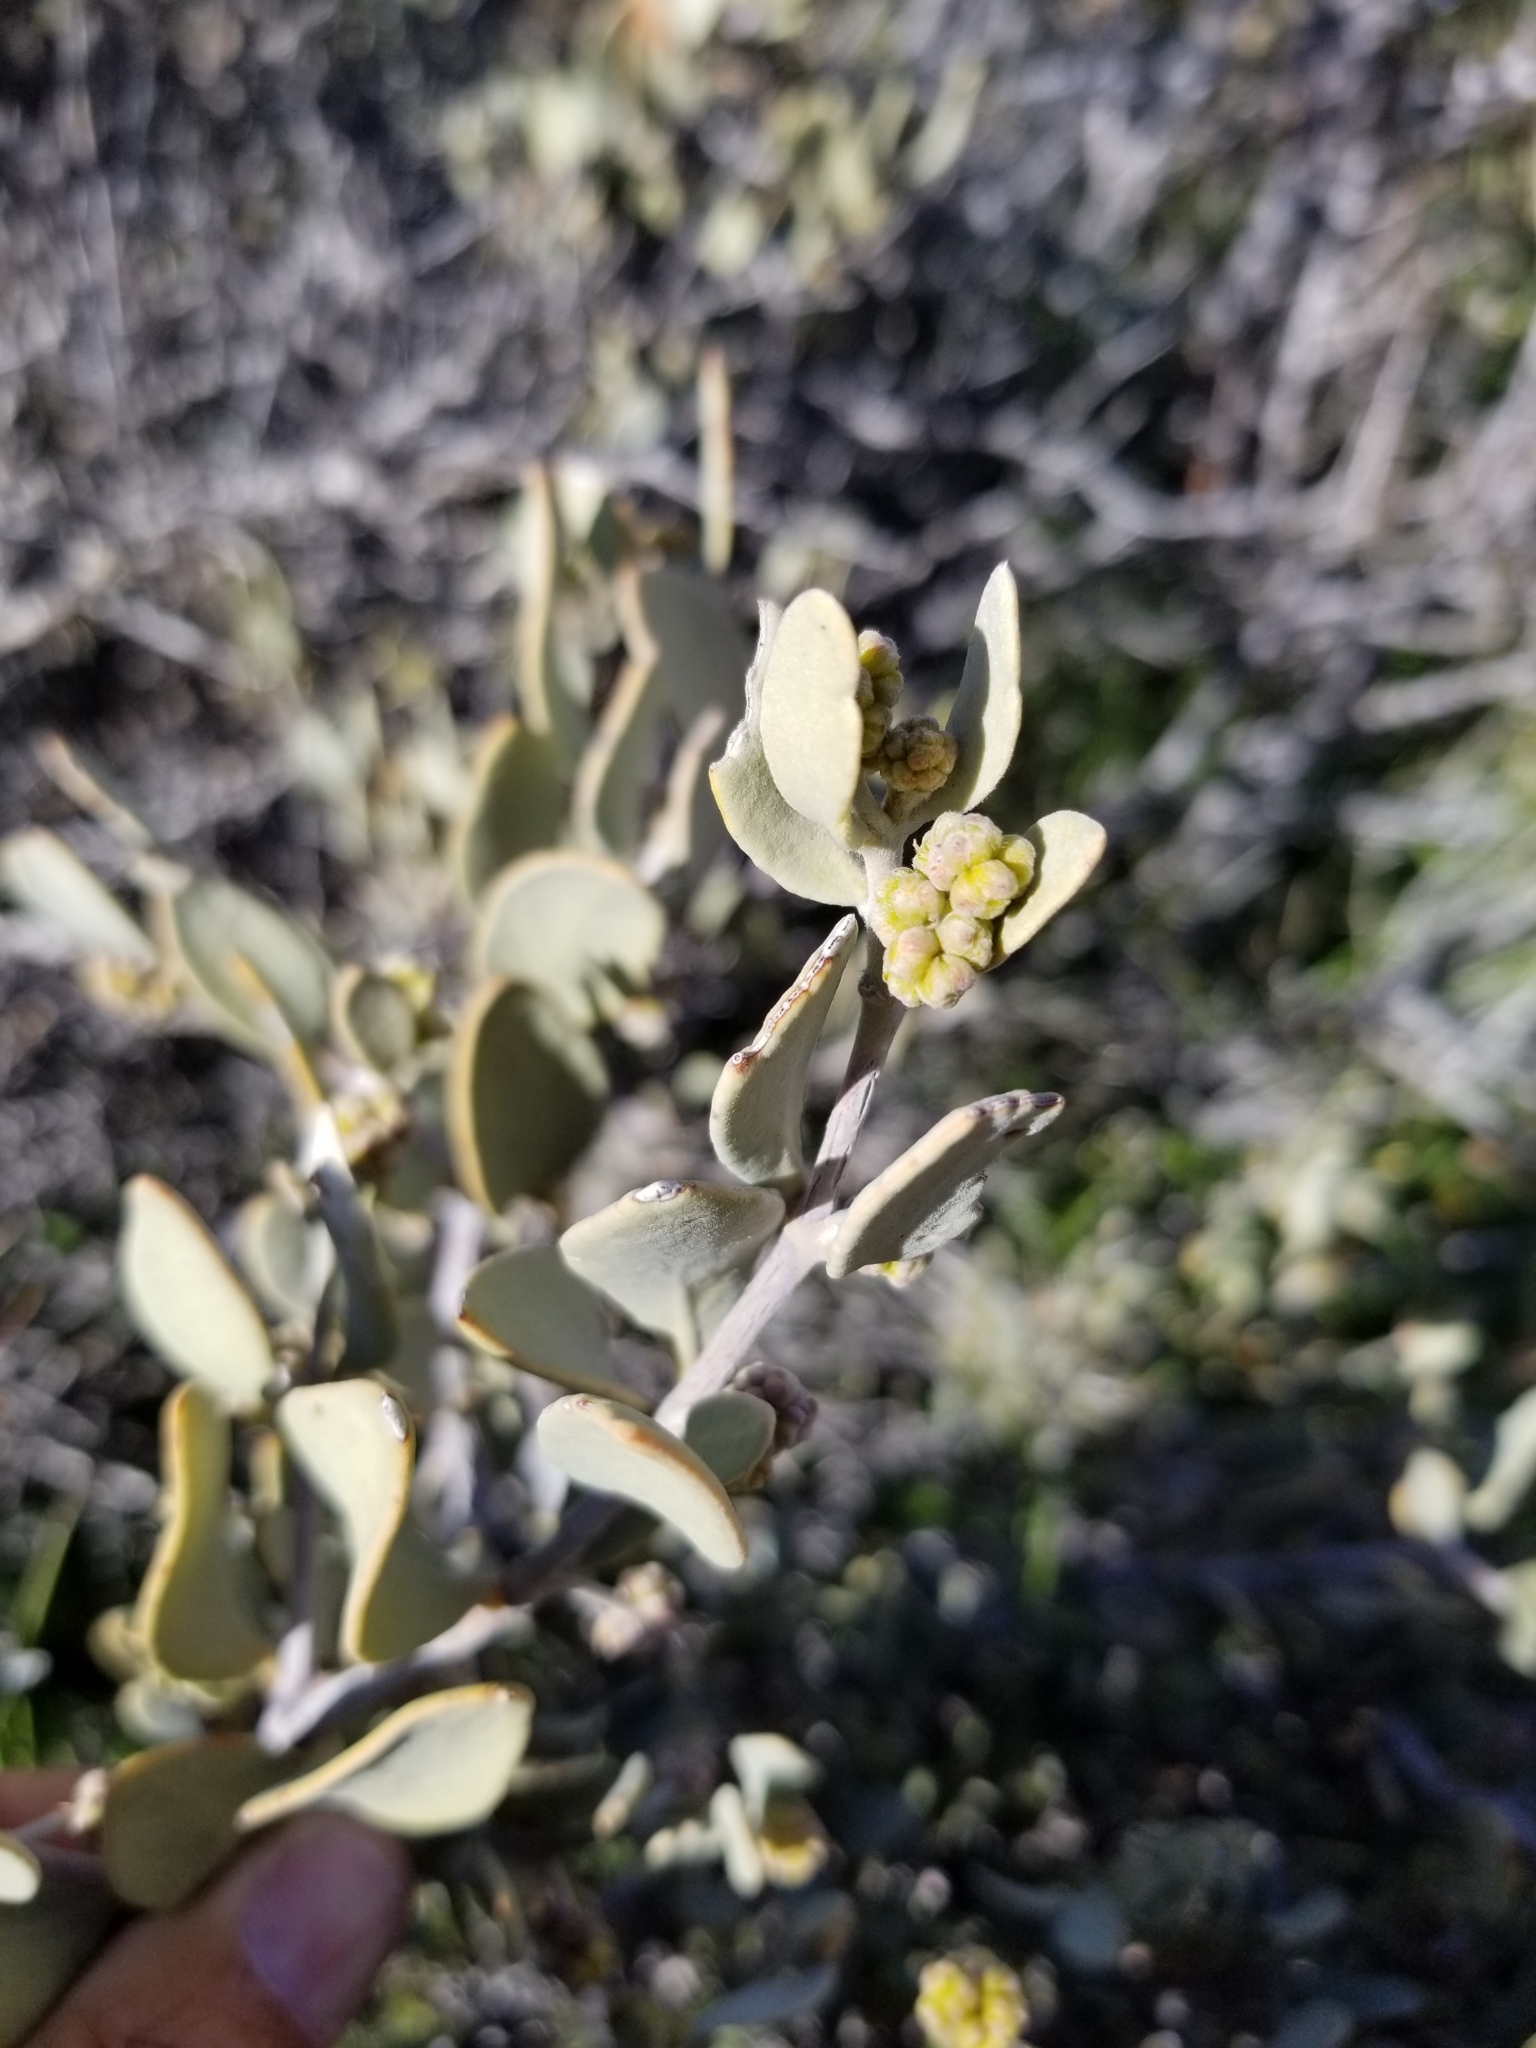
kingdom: Plantae
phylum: Tracheophyta
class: Magnoliopsida
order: Caryophyllales
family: Simmondsiaceae
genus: Simmondsia
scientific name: Simmondsia chinensis
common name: Jojoba
